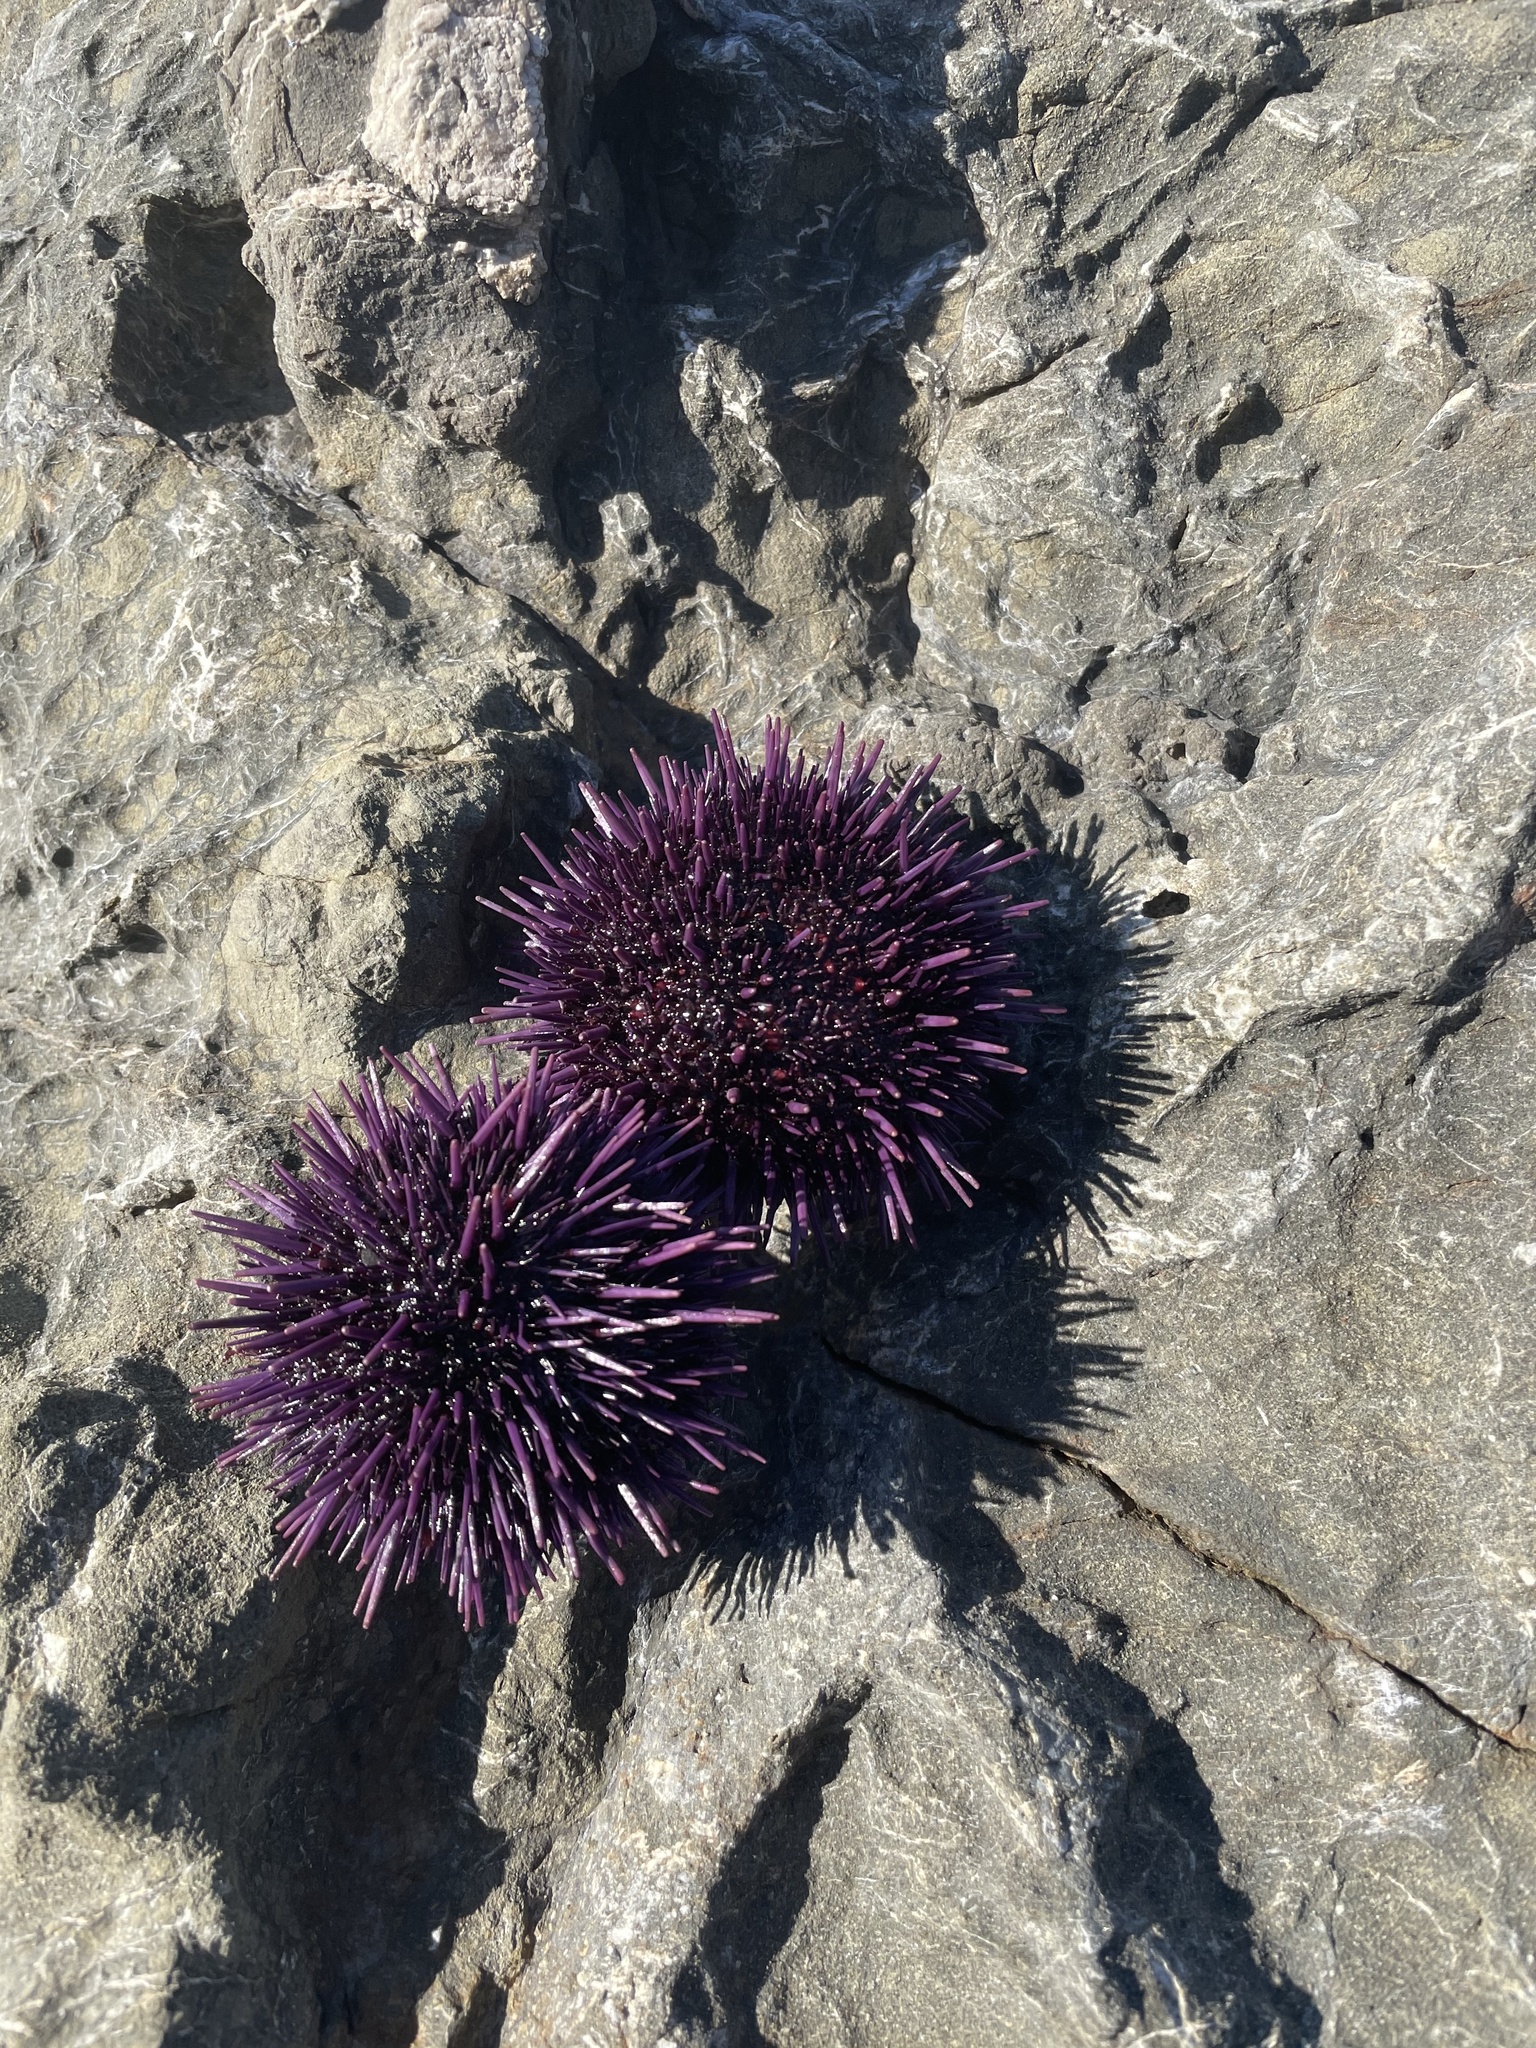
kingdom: Animalia
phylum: Echinodermata
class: Echinoidea
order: Camarodonta
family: Strongylocentrotidae
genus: Strongylocentrotus
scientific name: Strongylocentrotus purpuratus
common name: Purple sea urchin
